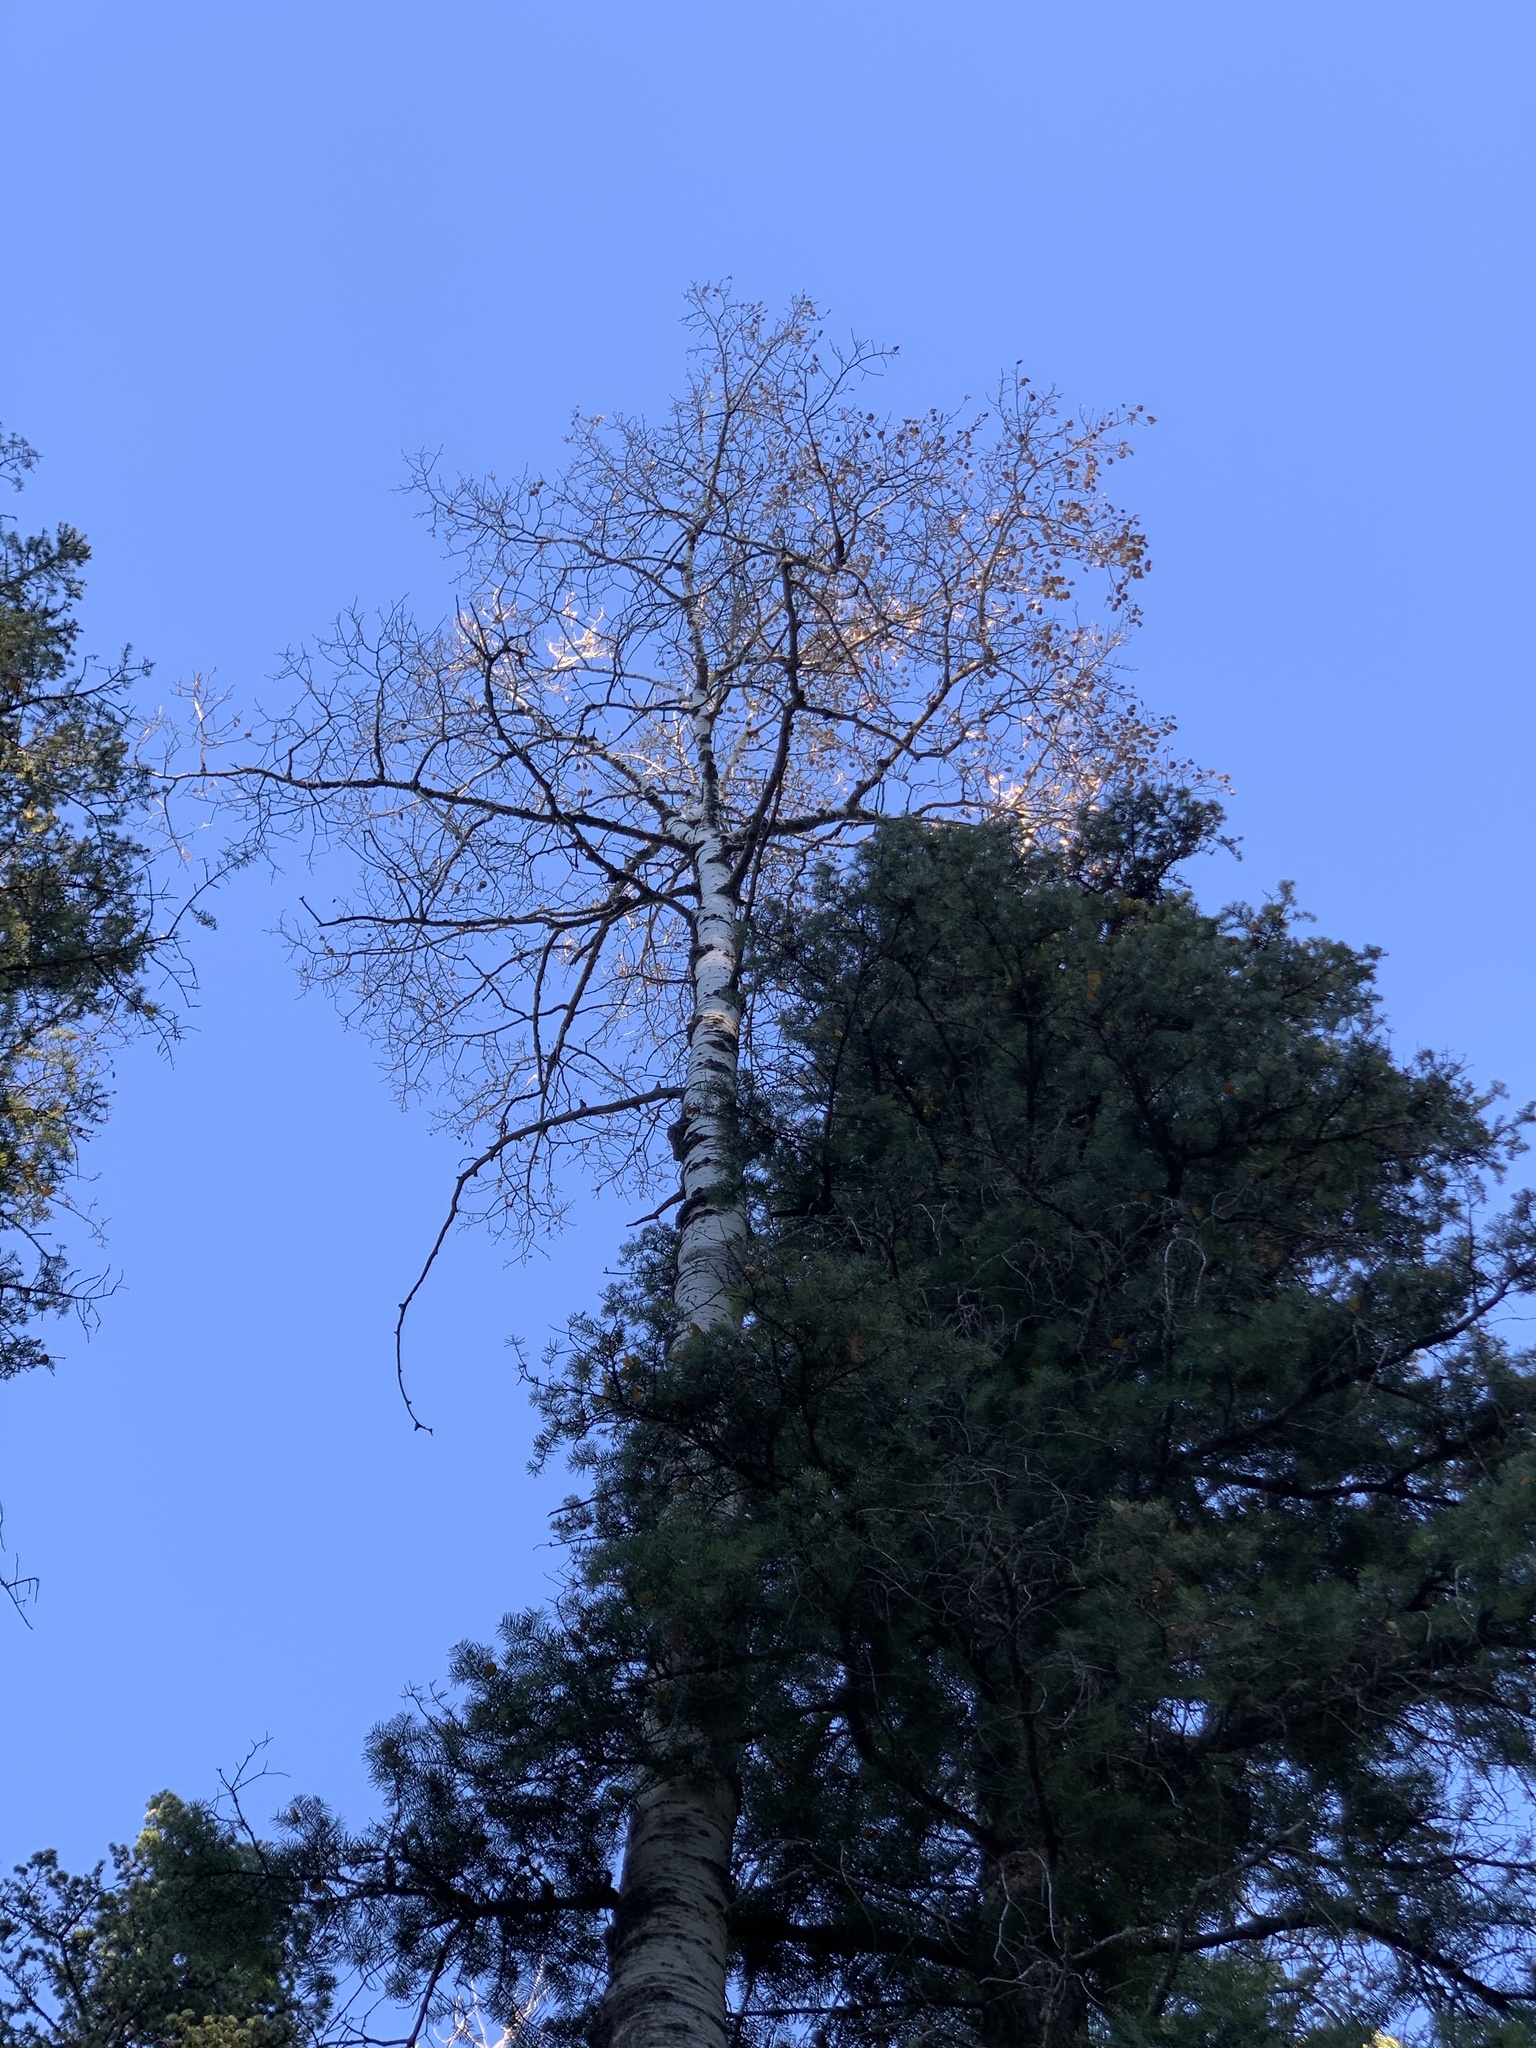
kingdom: Plantae
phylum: Tracheophyta
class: Magnoliopsida
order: Malpighiales
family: Salicaceae
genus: Populus
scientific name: Populus tremuloides
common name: Quaking aspen
